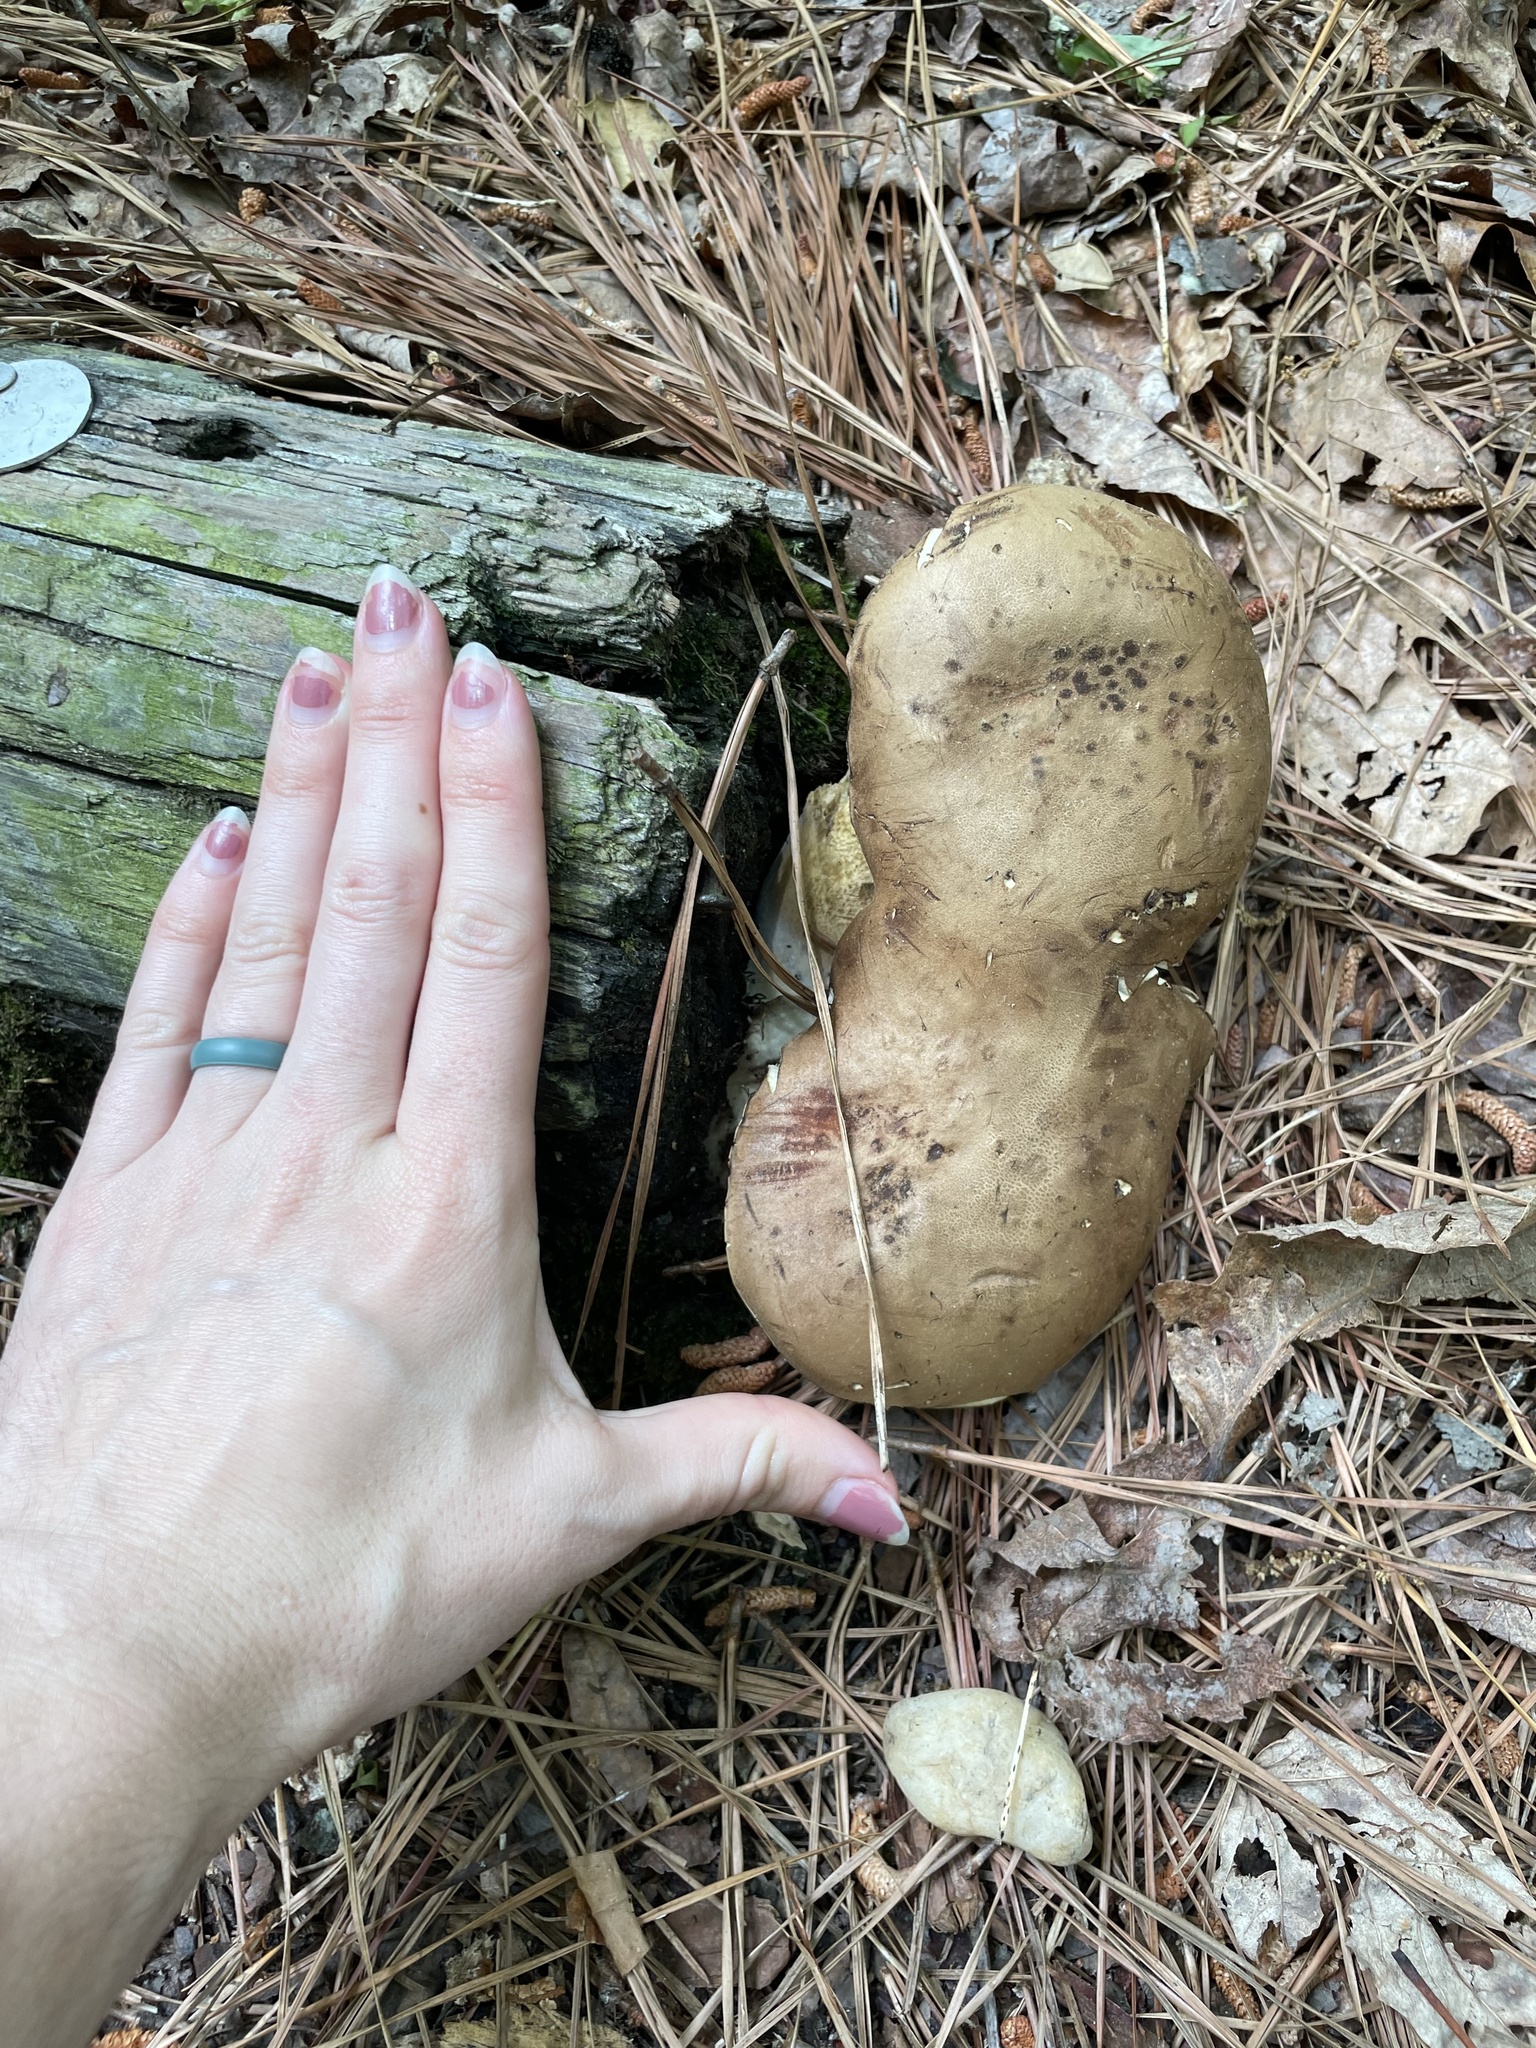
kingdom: Fungi
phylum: Basidiomycota
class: Agaricomycetes
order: Boletales
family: Boletaceae
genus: Tylopilus
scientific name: Tylopilus felleus
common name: Bitter bolete
